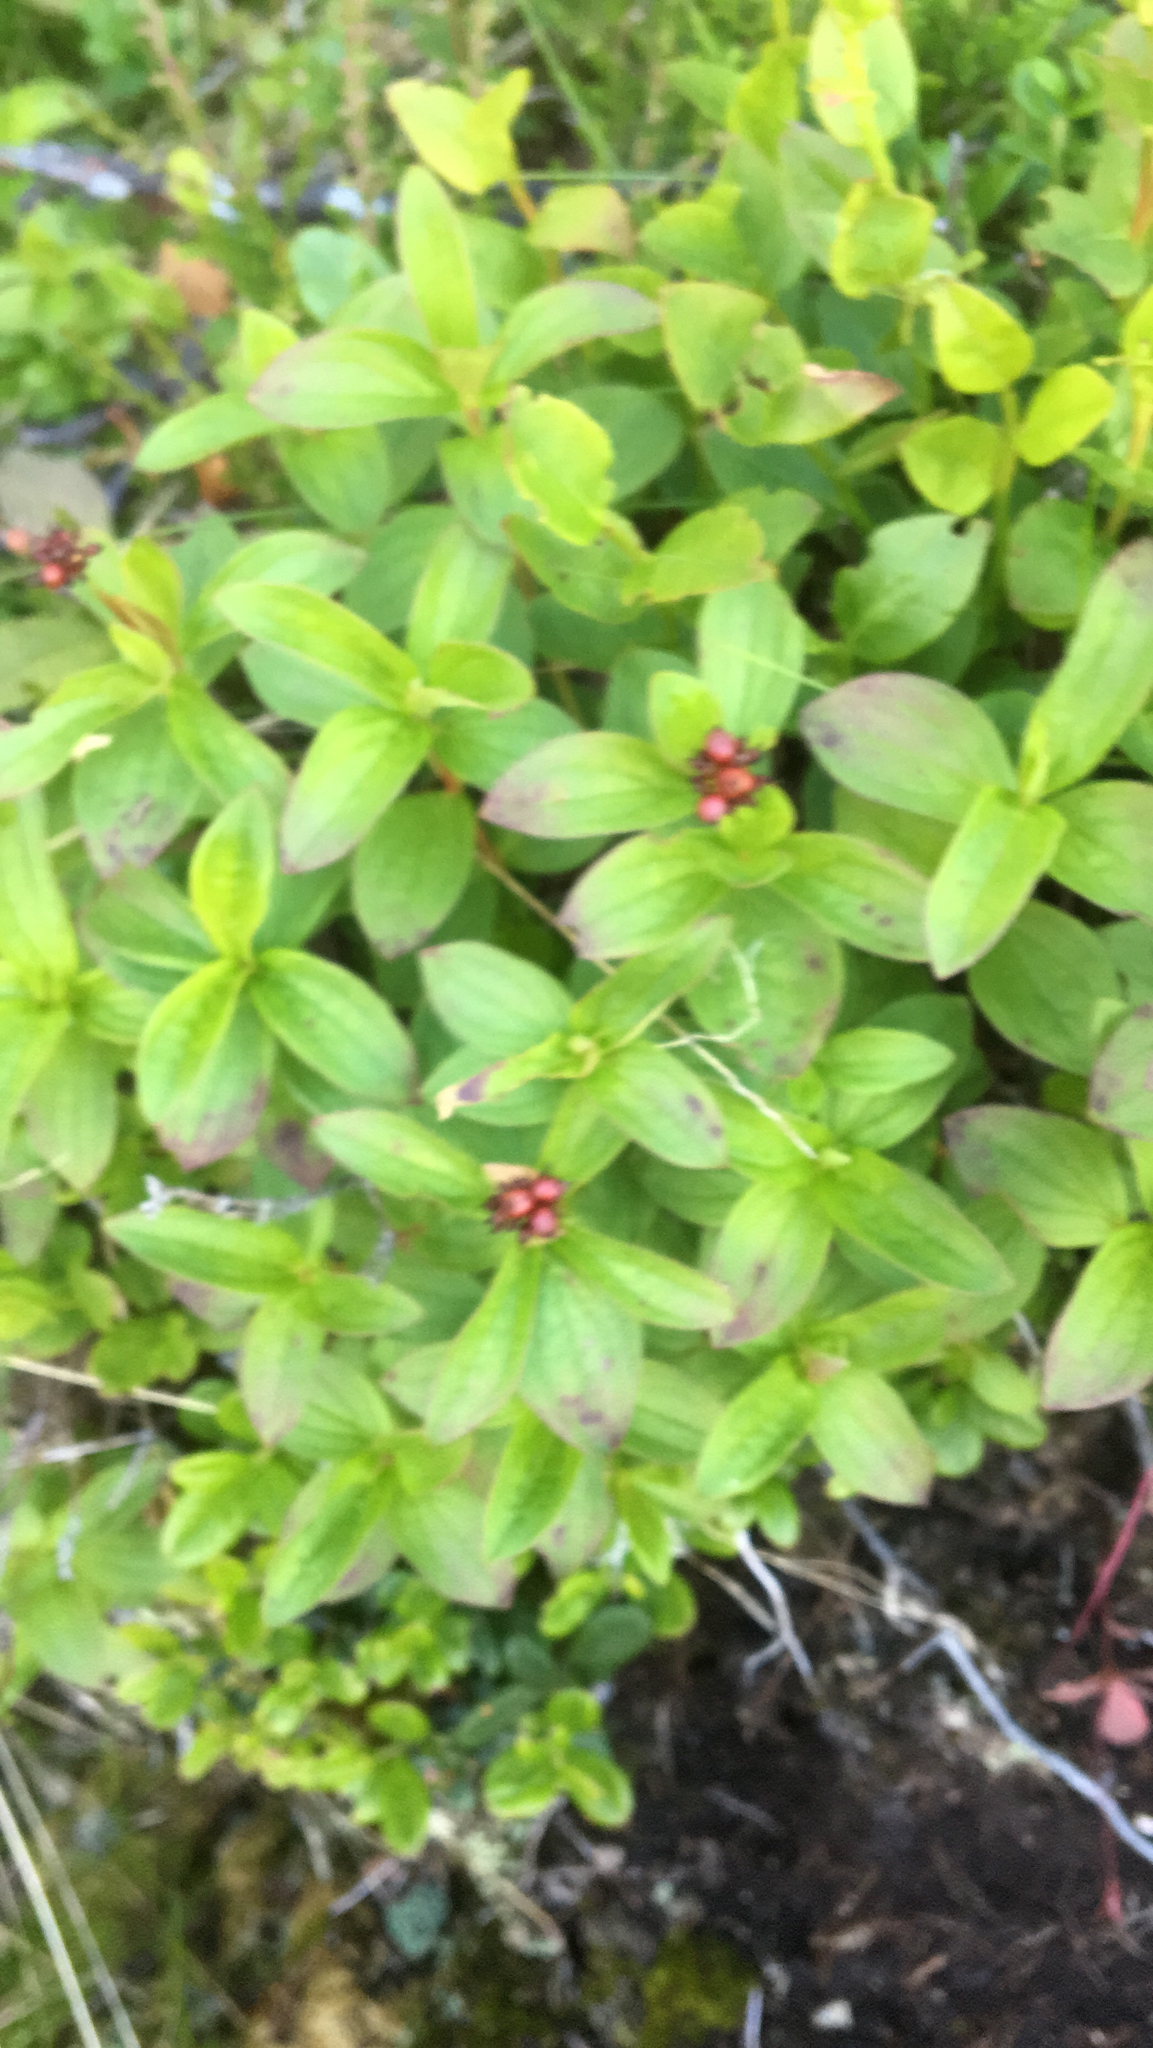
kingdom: Plantae
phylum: Tracheophyta
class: Magnoliopsida
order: Cornales
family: Cornaceae
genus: Cornus
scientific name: Cornus suecica
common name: Dwarf cornel
